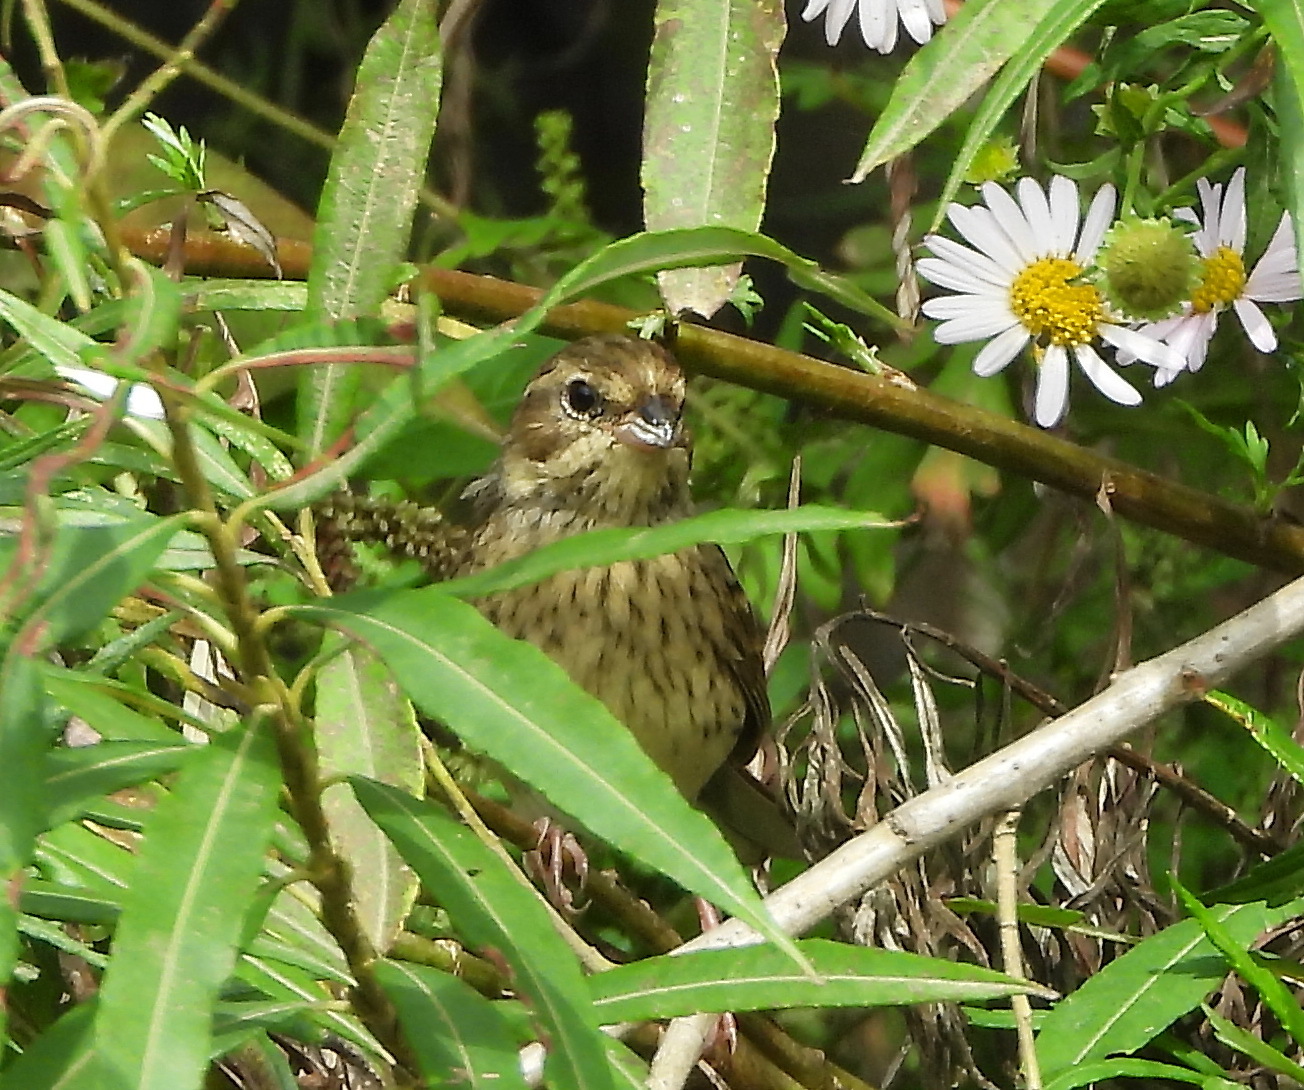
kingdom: Animalia
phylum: Chordata
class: Aves
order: Passeriformes
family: Emberizidae
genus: Emberiza
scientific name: Emberiza spodocephala
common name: Black-faced bunting
